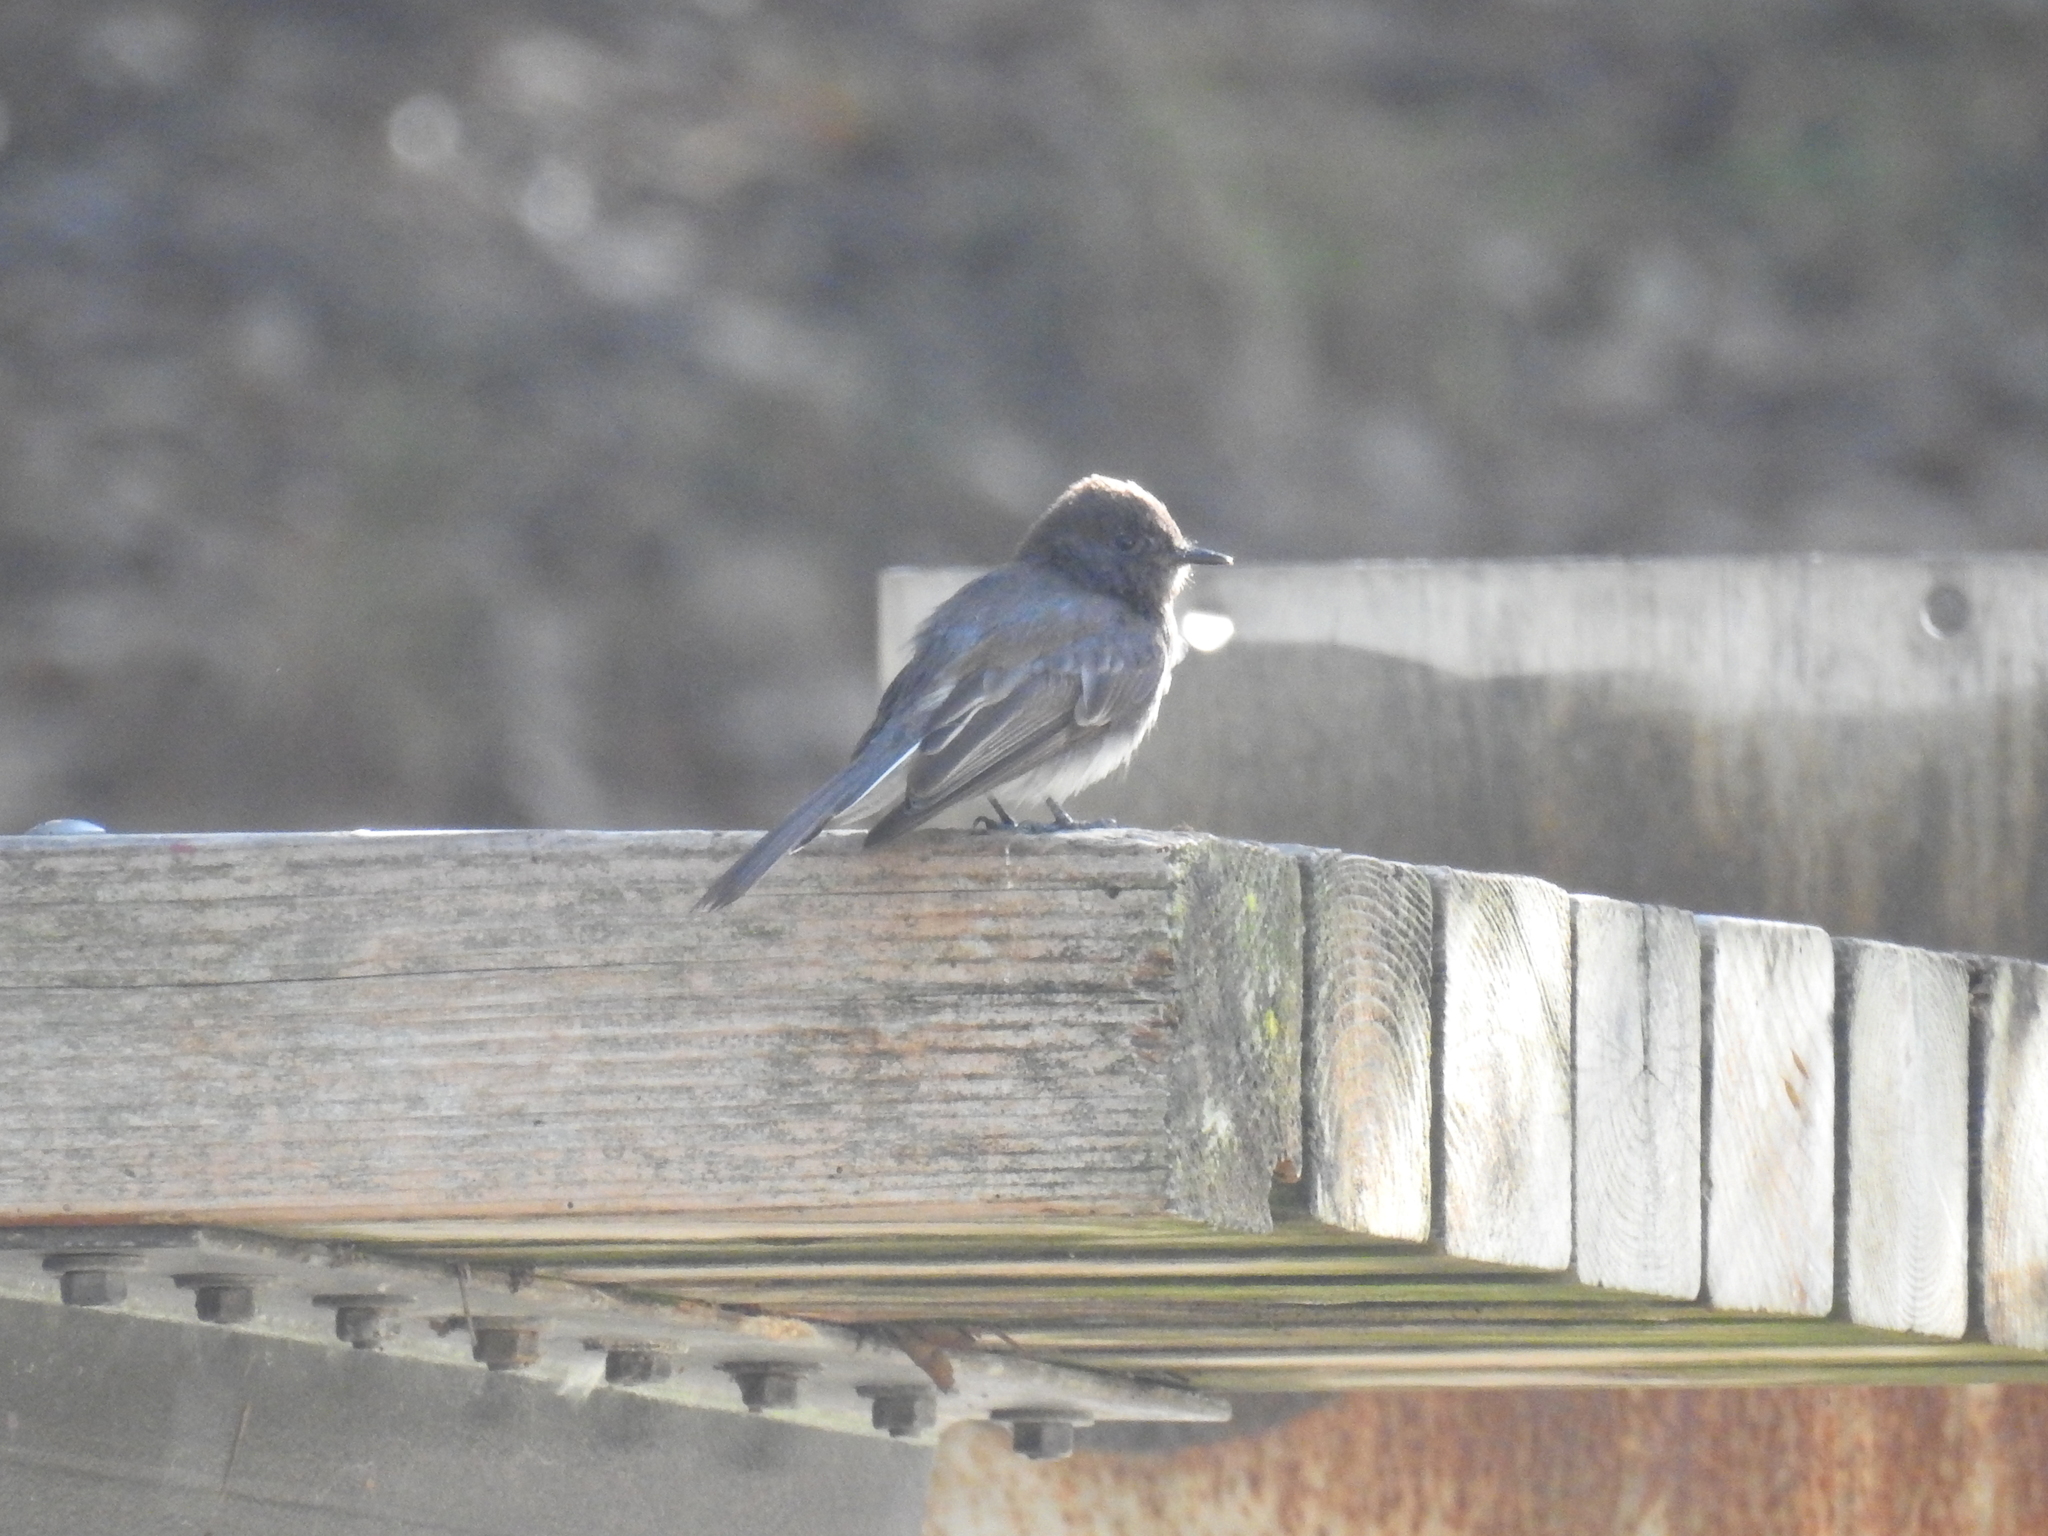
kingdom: Animalia
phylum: Chordata
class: Aves
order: Passeriformes
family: Tyrannidae
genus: Sayornis
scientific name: Sayornis nigricans
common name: Black phoebe
